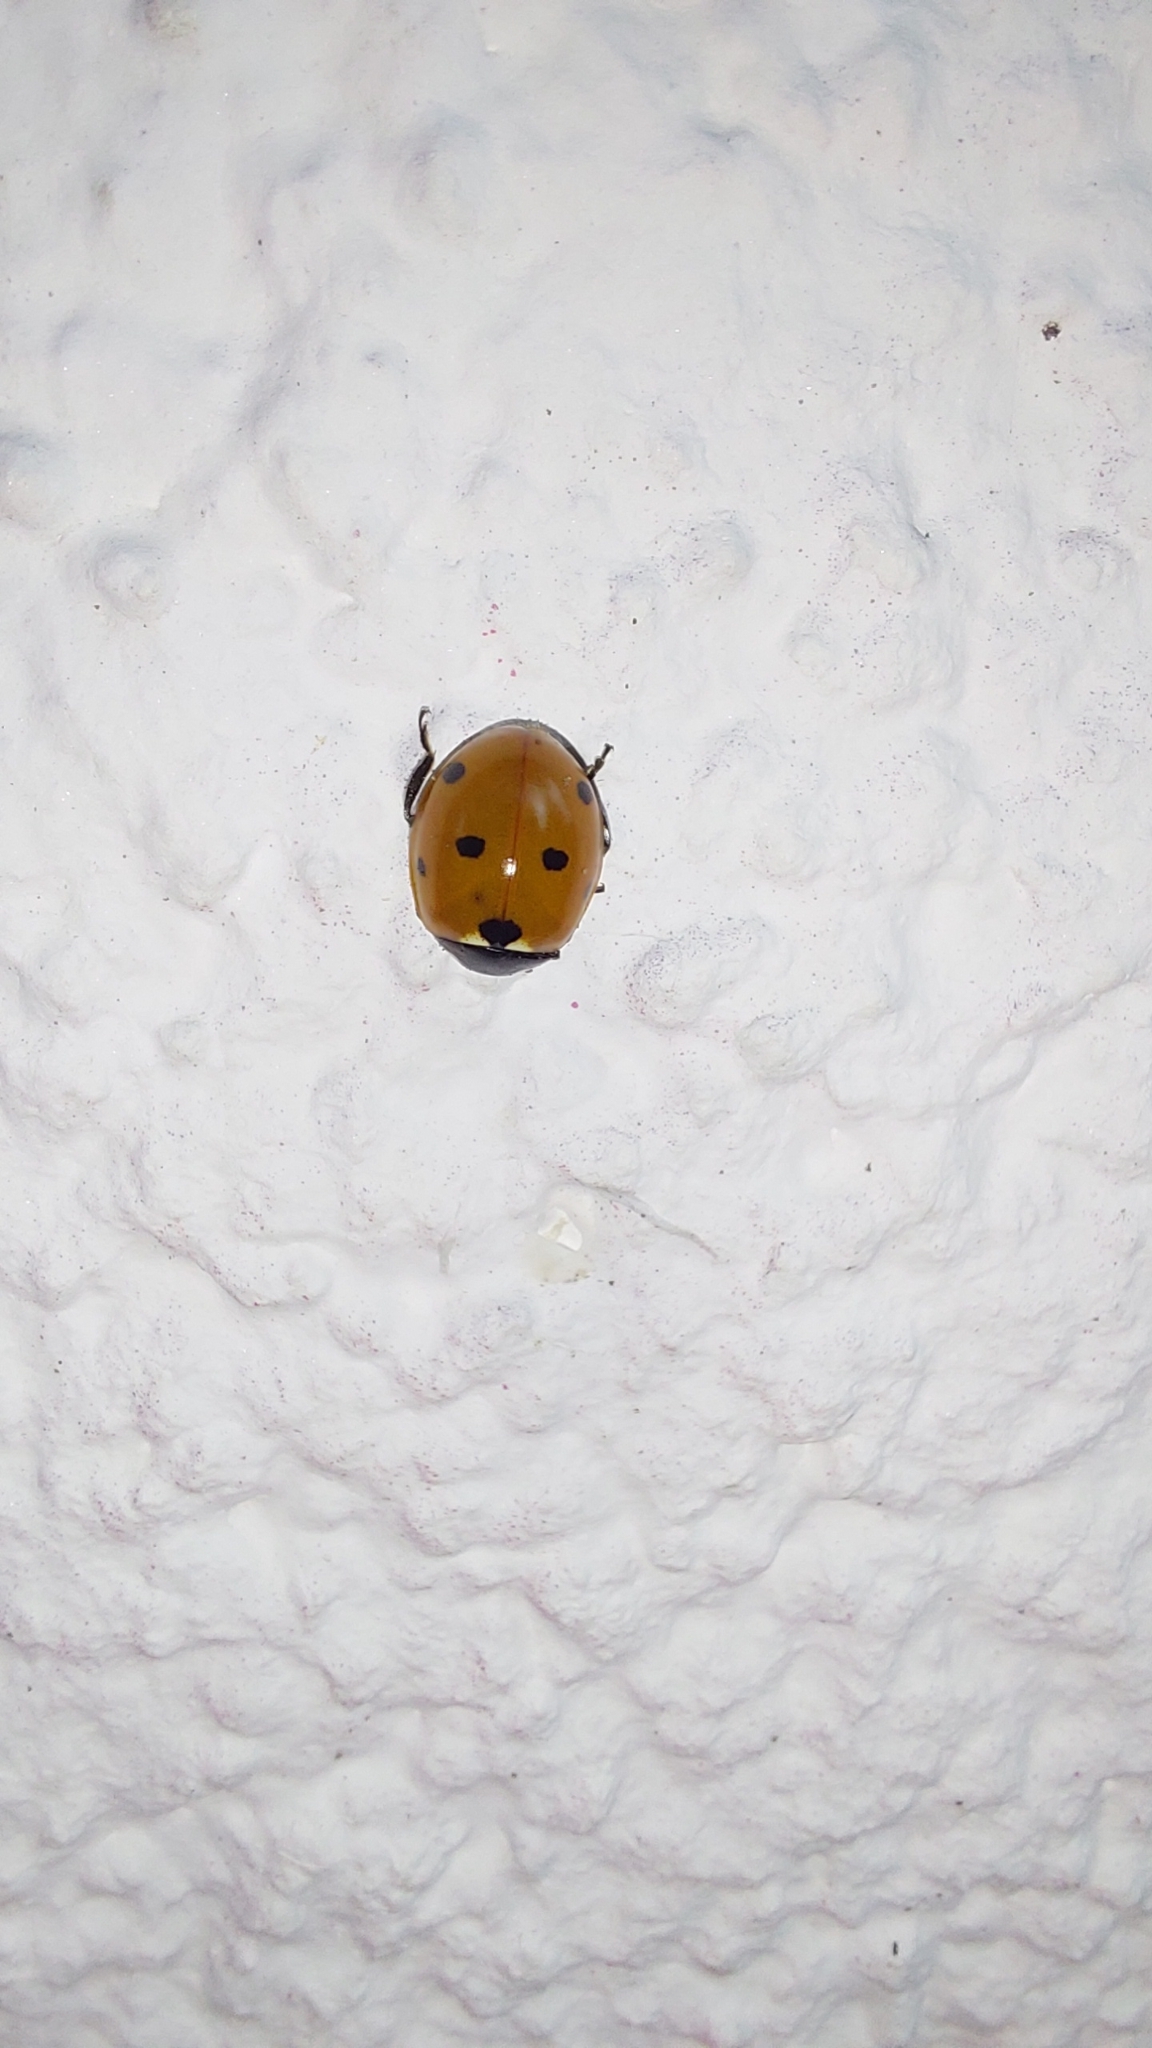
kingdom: Animalia
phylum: Arthropoda
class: Insecta
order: Coleoptera
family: Coccinellidae
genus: Coccinella
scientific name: Coccinella septempunctata
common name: Sevenspotted lady beetle
